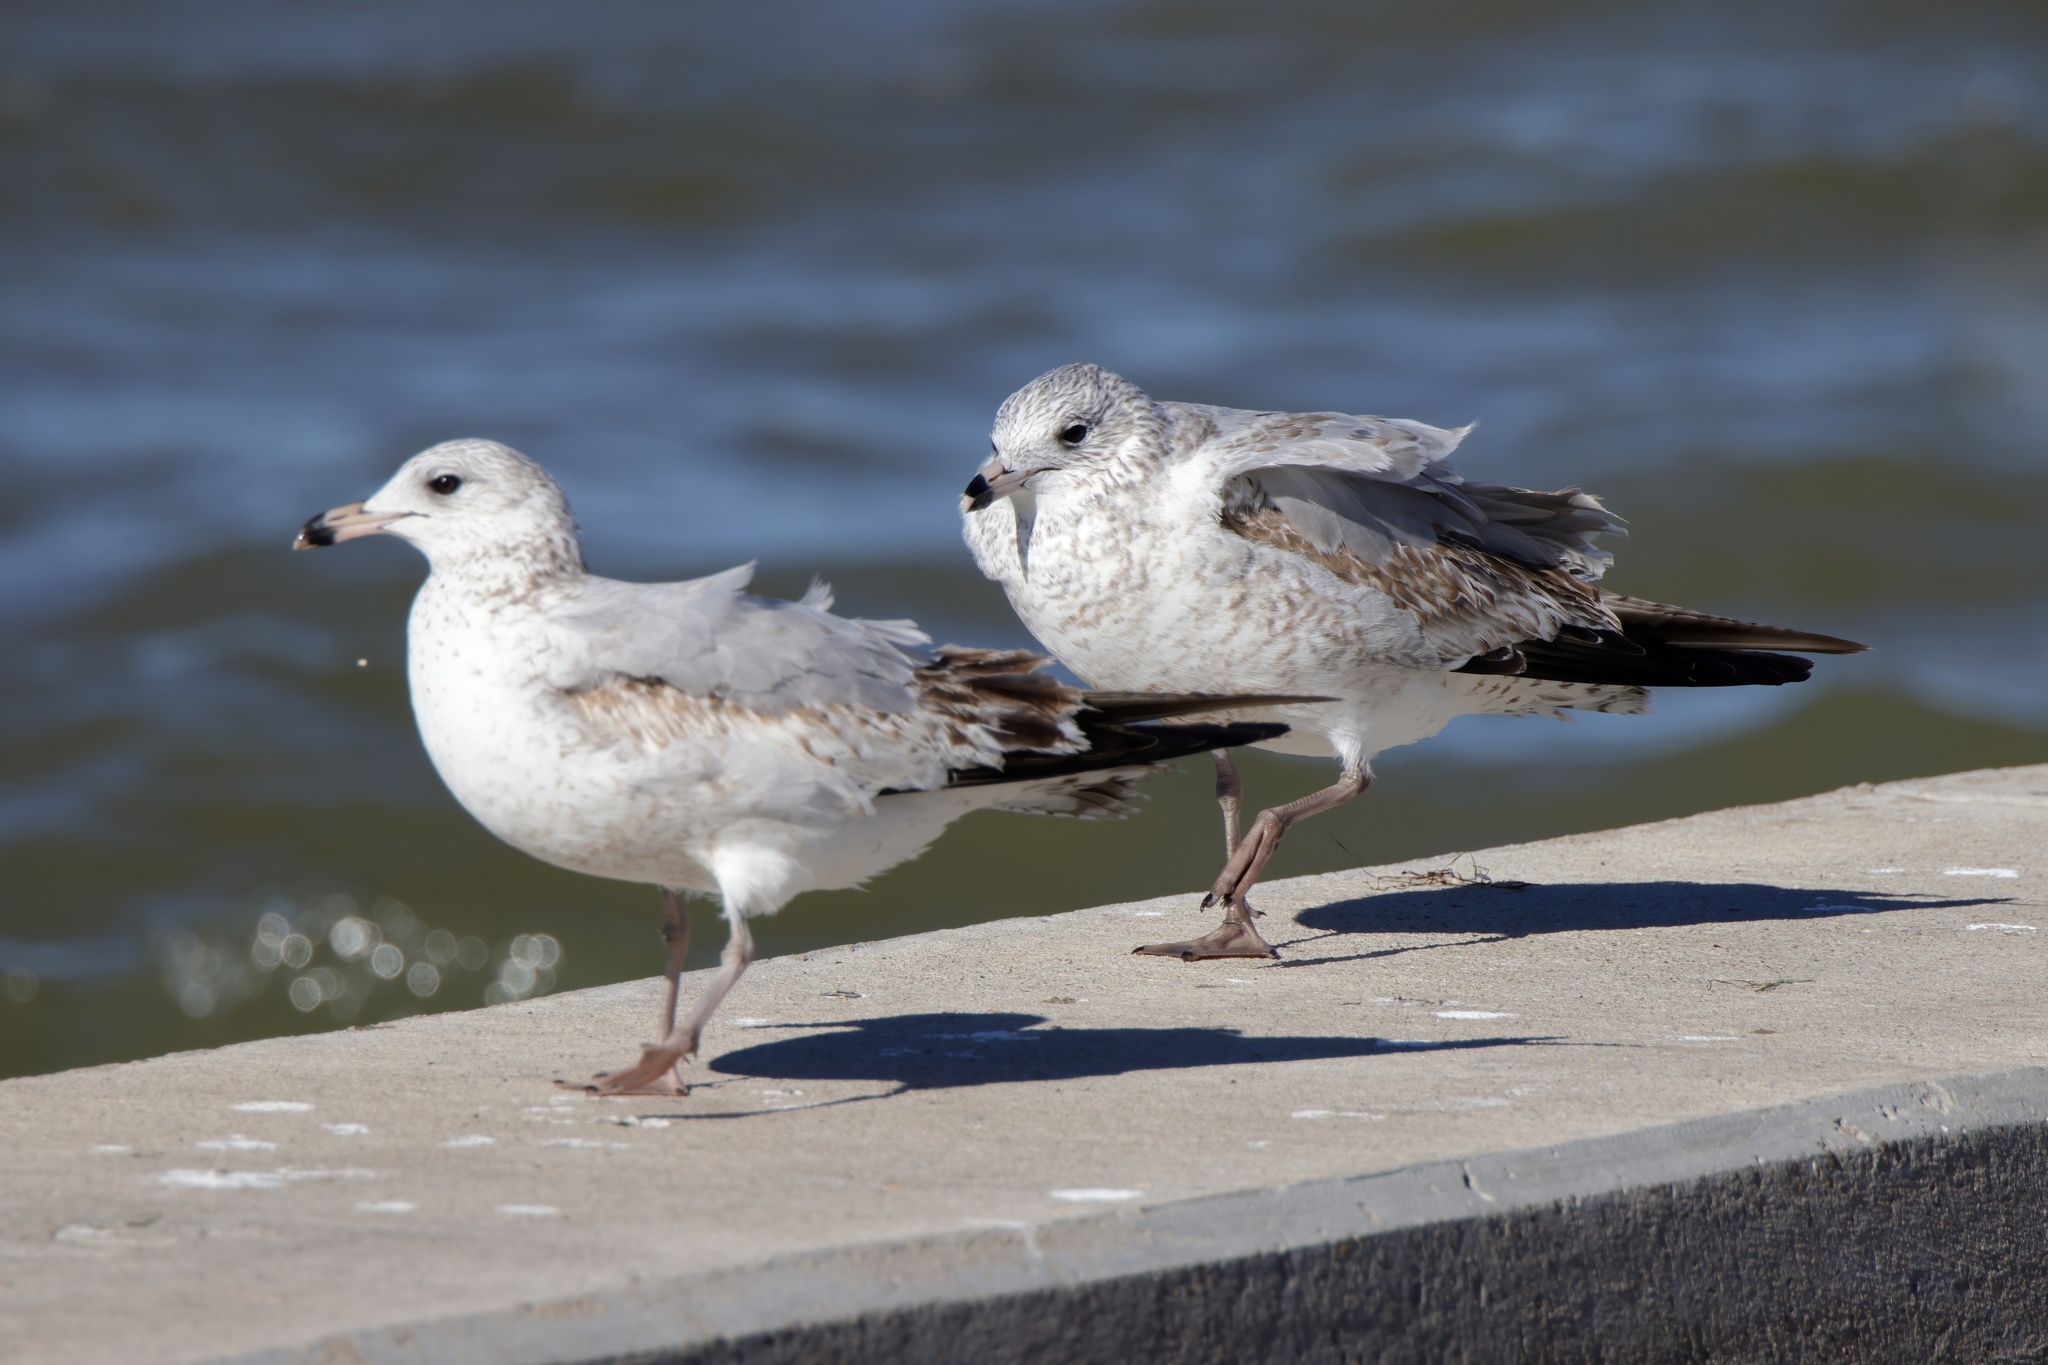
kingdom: Animalia
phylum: Chordata
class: Aves
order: Charadriiformes
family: Laridae
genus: Larus
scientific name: Larus delawarensis
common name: Ring-billed gull
